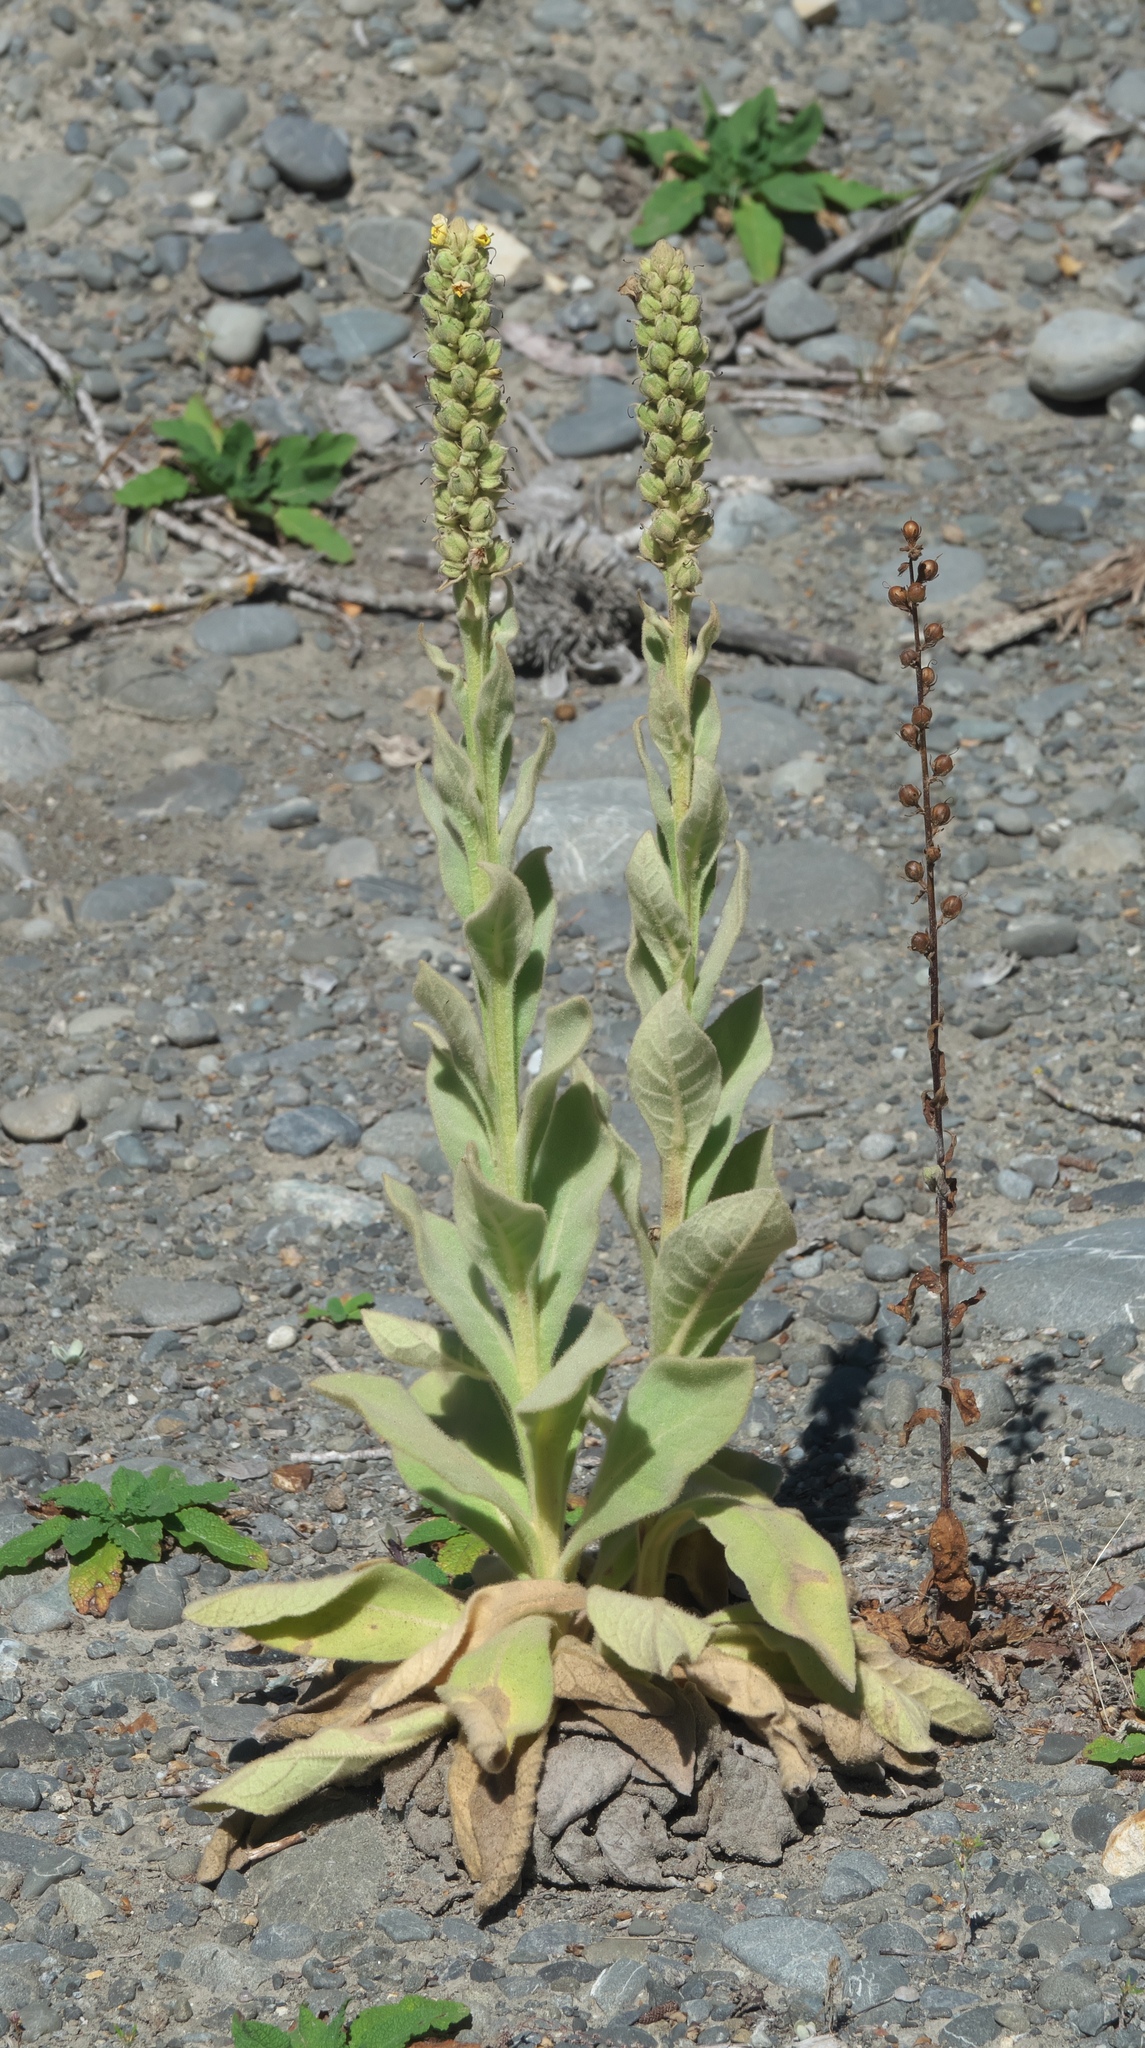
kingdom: Plantae
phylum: Tracheophyta
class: Magnoliopsida
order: Lamiales
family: Scrophulariaceae
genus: Verbascum
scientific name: Verbascum thapsus
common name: Common mullein
